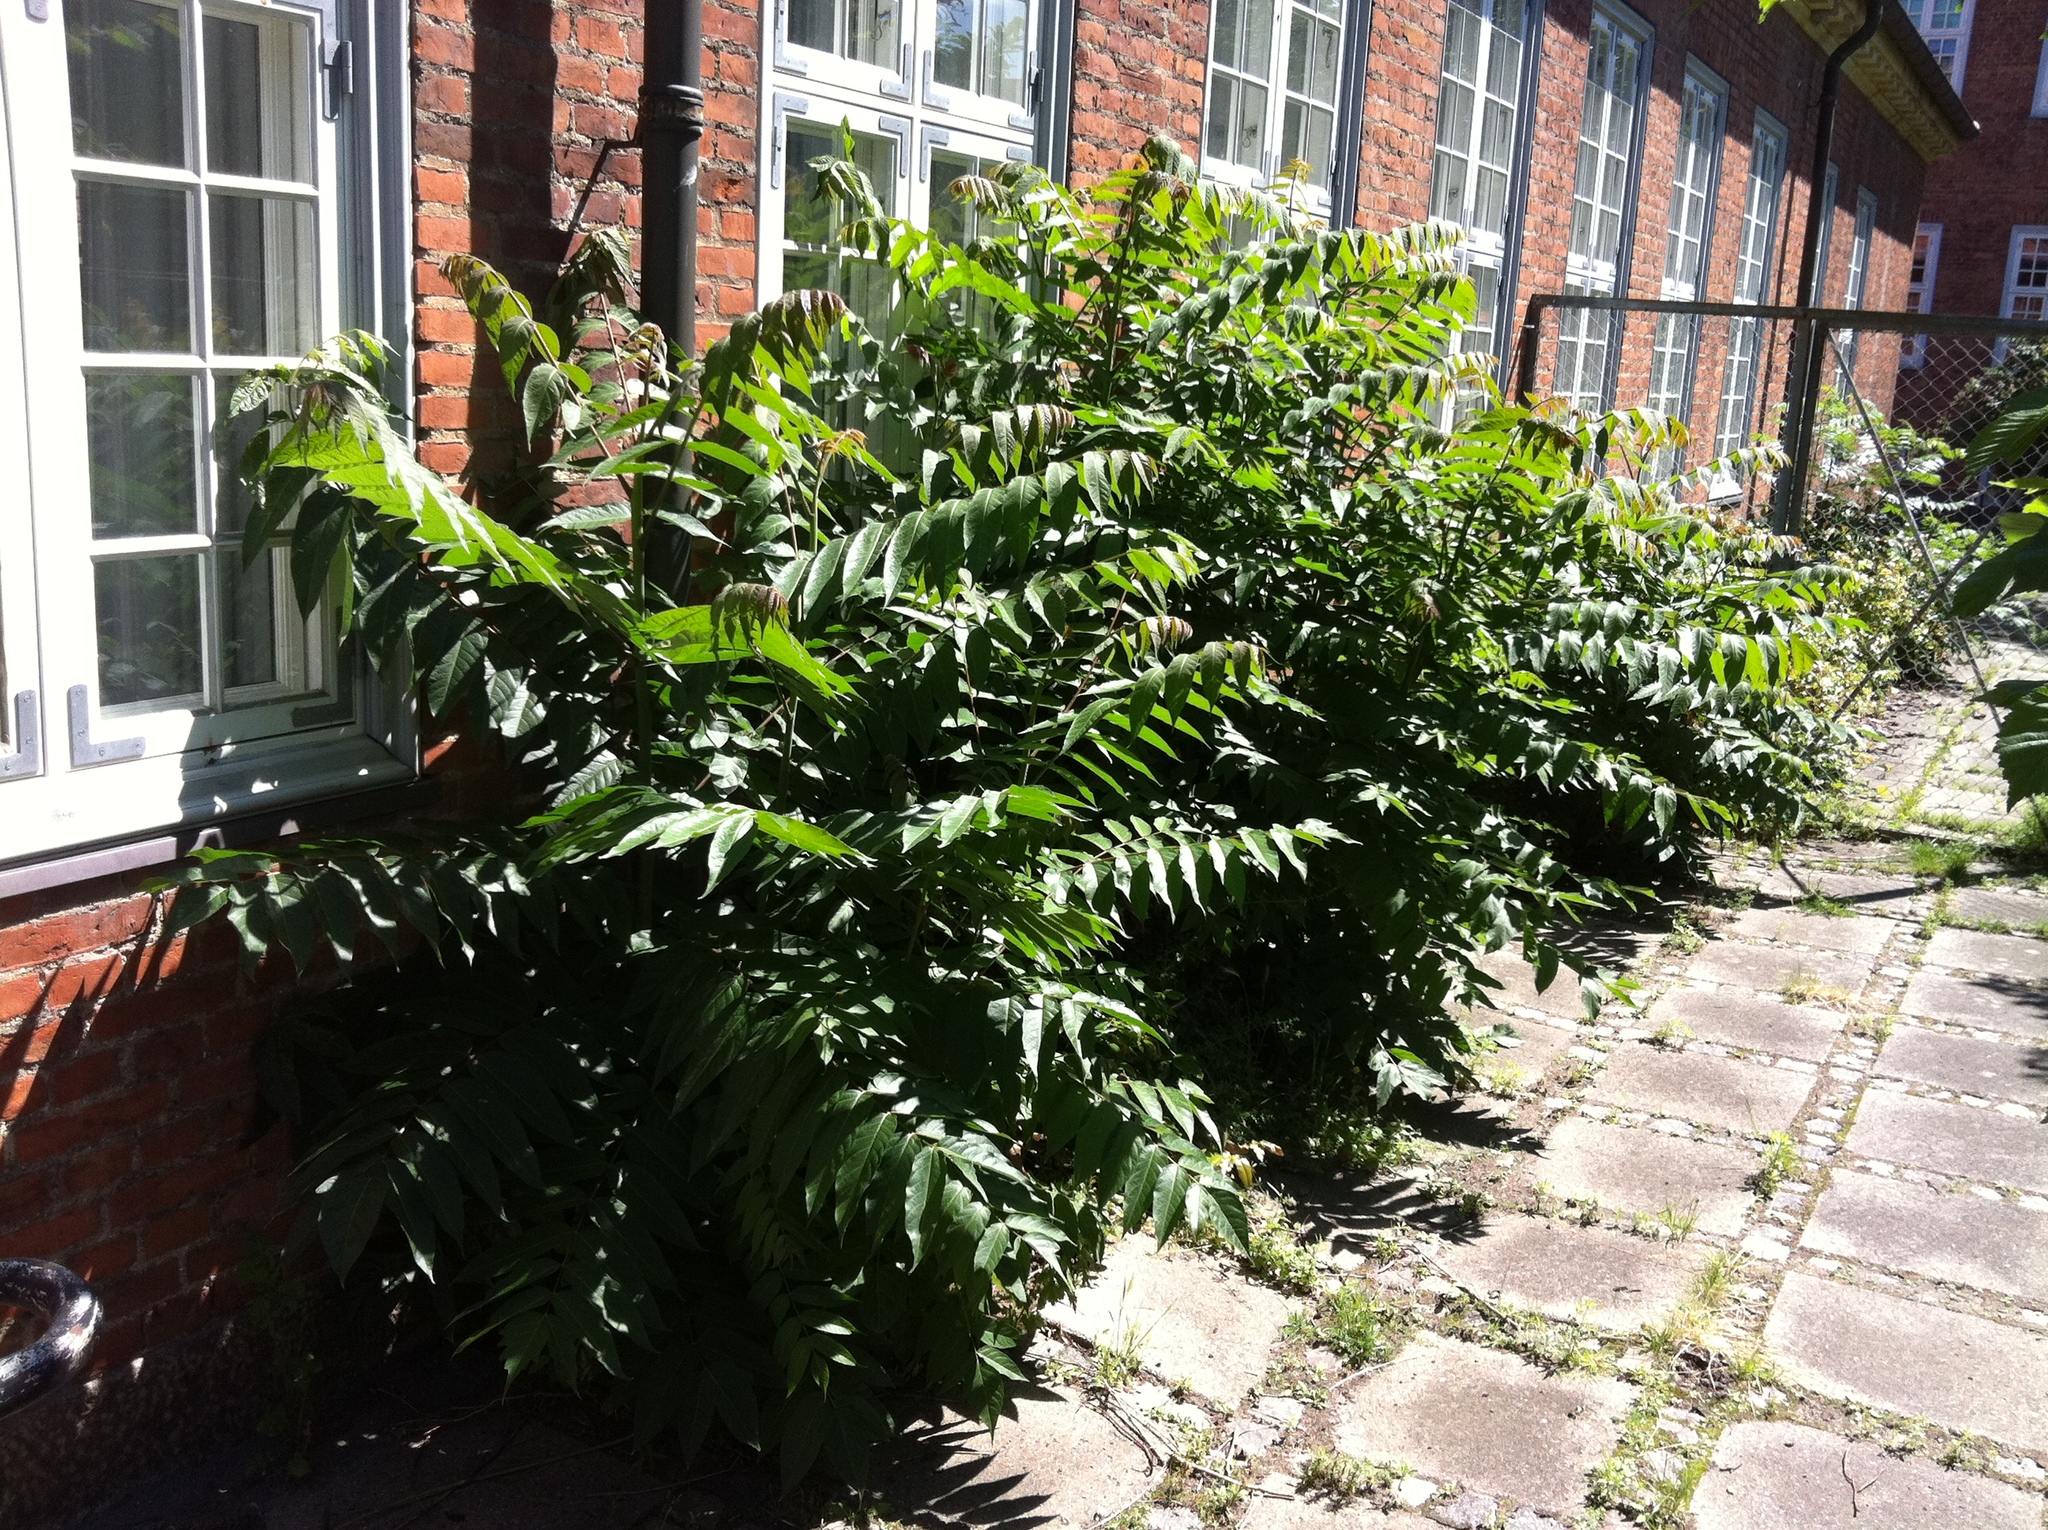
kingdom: Plantae
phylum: Tracheophyta
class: Magnoliopsida
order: Sapindales
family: Simaroubaceae
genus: Ailanthus
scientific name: Ailanthus altissima
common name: Tree-of-heaven
